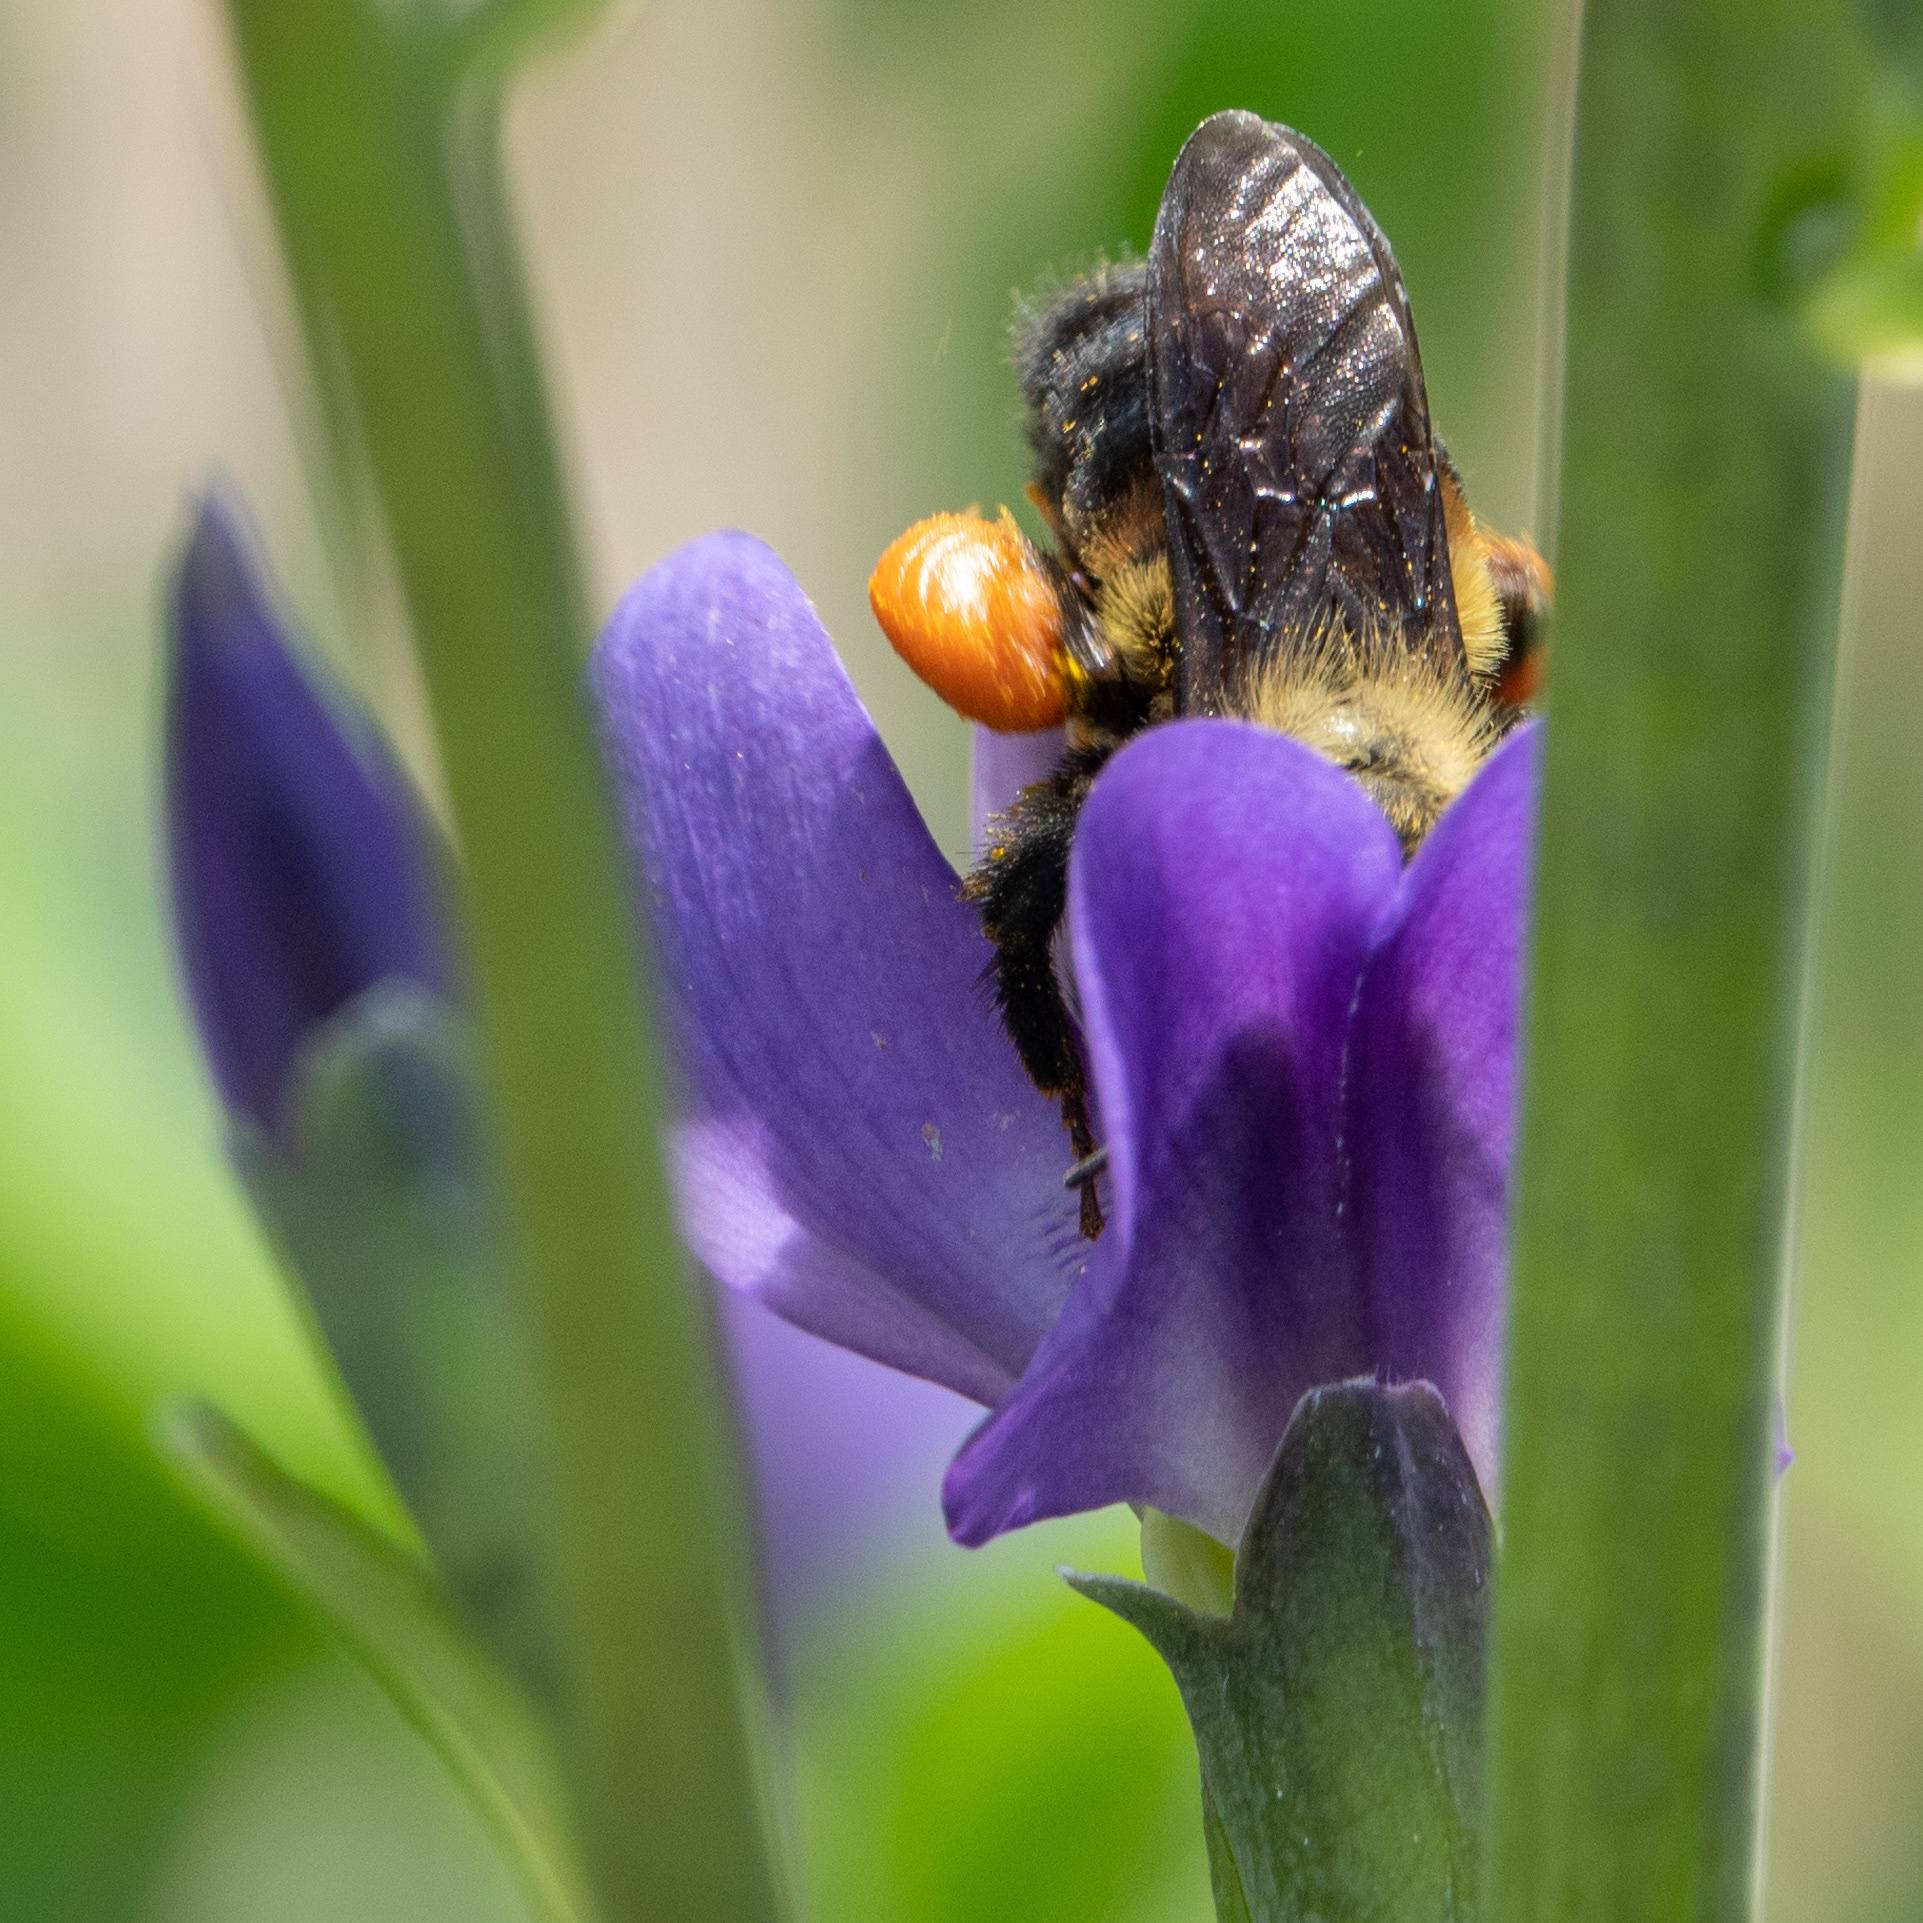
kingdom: Animalia
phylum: Arthropoda
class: Insecta
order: Hymenoptera
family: Apidae
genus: Bombus
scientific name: Bombus griseocollis
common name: Brown-belted bumble bee
